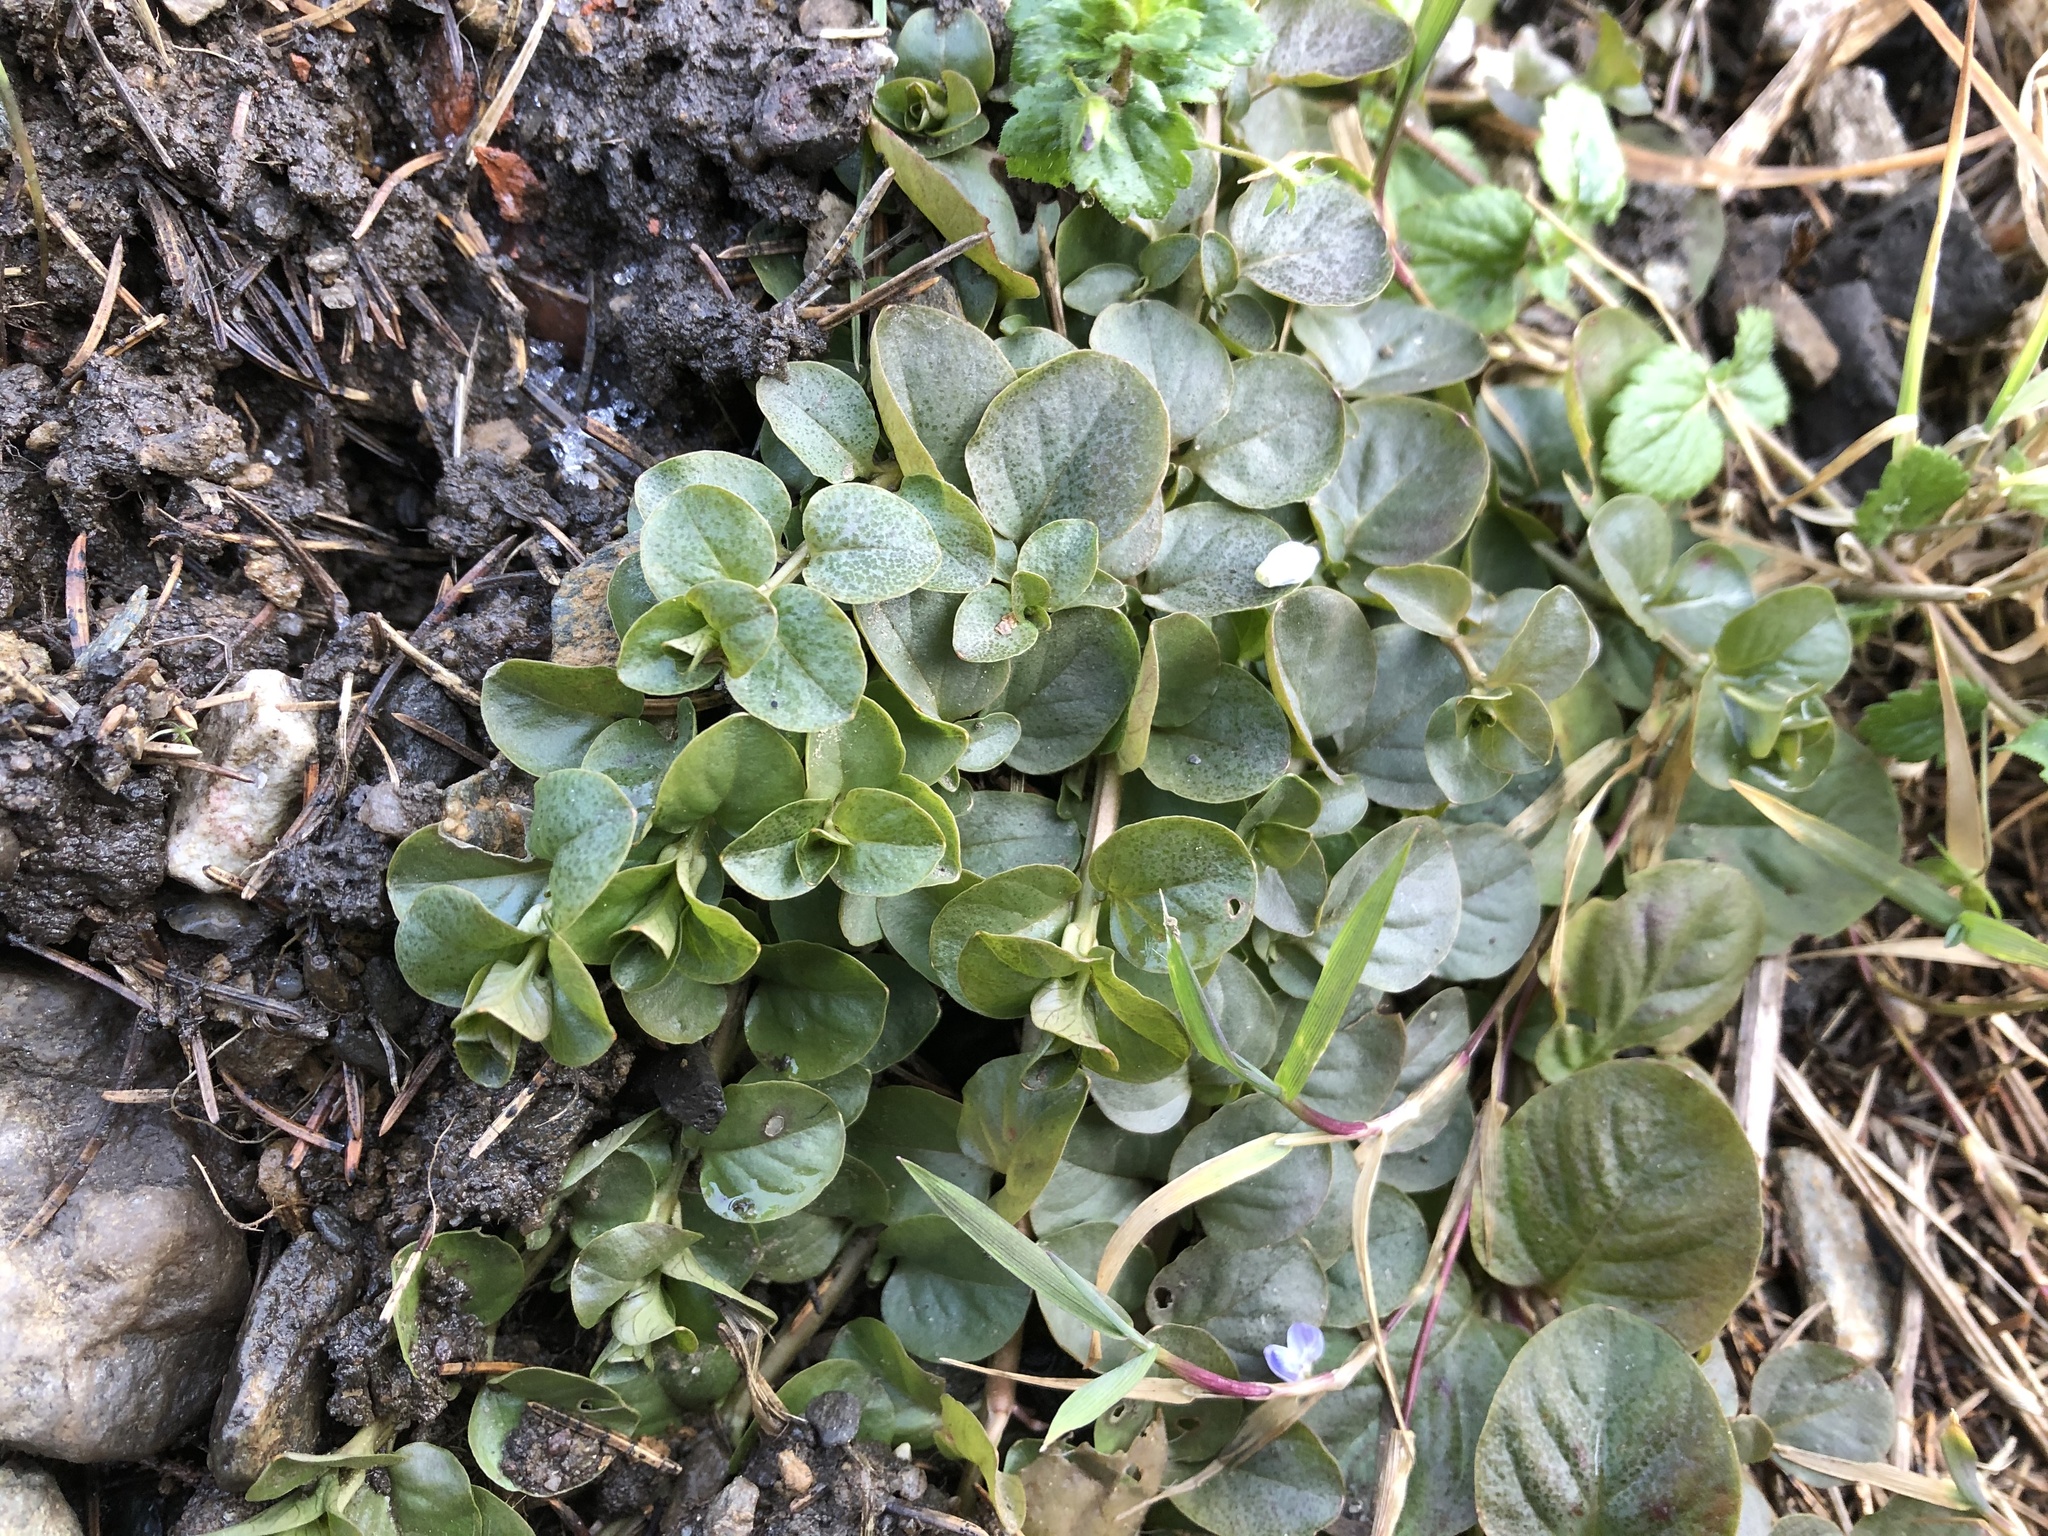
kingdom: Plantae
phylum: Tracheophyta
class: Magnoliopsida
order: Ericales
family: Primulaceae
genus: Lysimachia
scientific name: Lysimachia nummularia
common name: Moneywort
